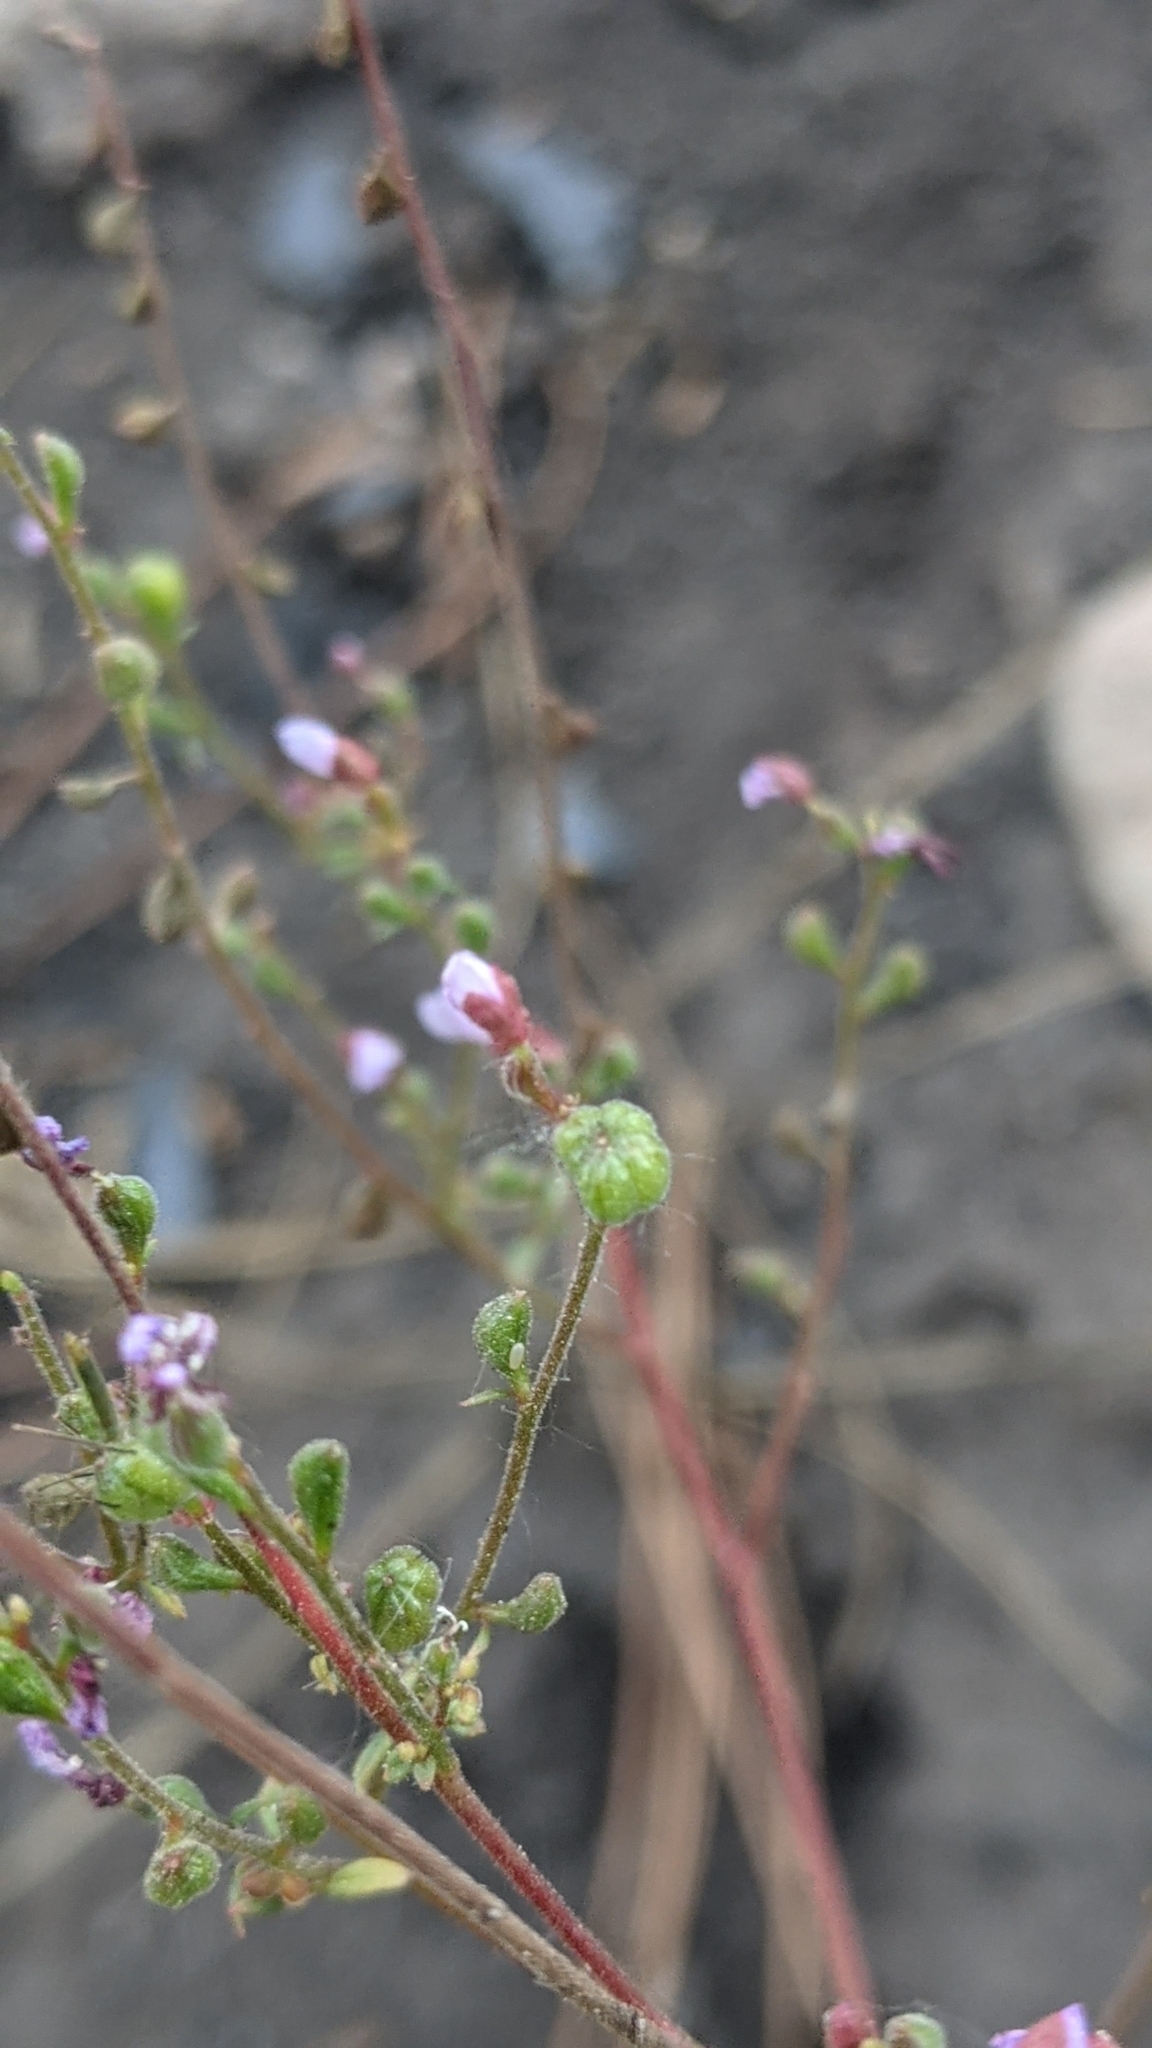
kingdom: Plantae
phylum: Tracheophyta
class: Magnoliopsida
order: Myrtales
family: Onagraceae
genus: Clarkia
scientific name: Clarkia heterandra
